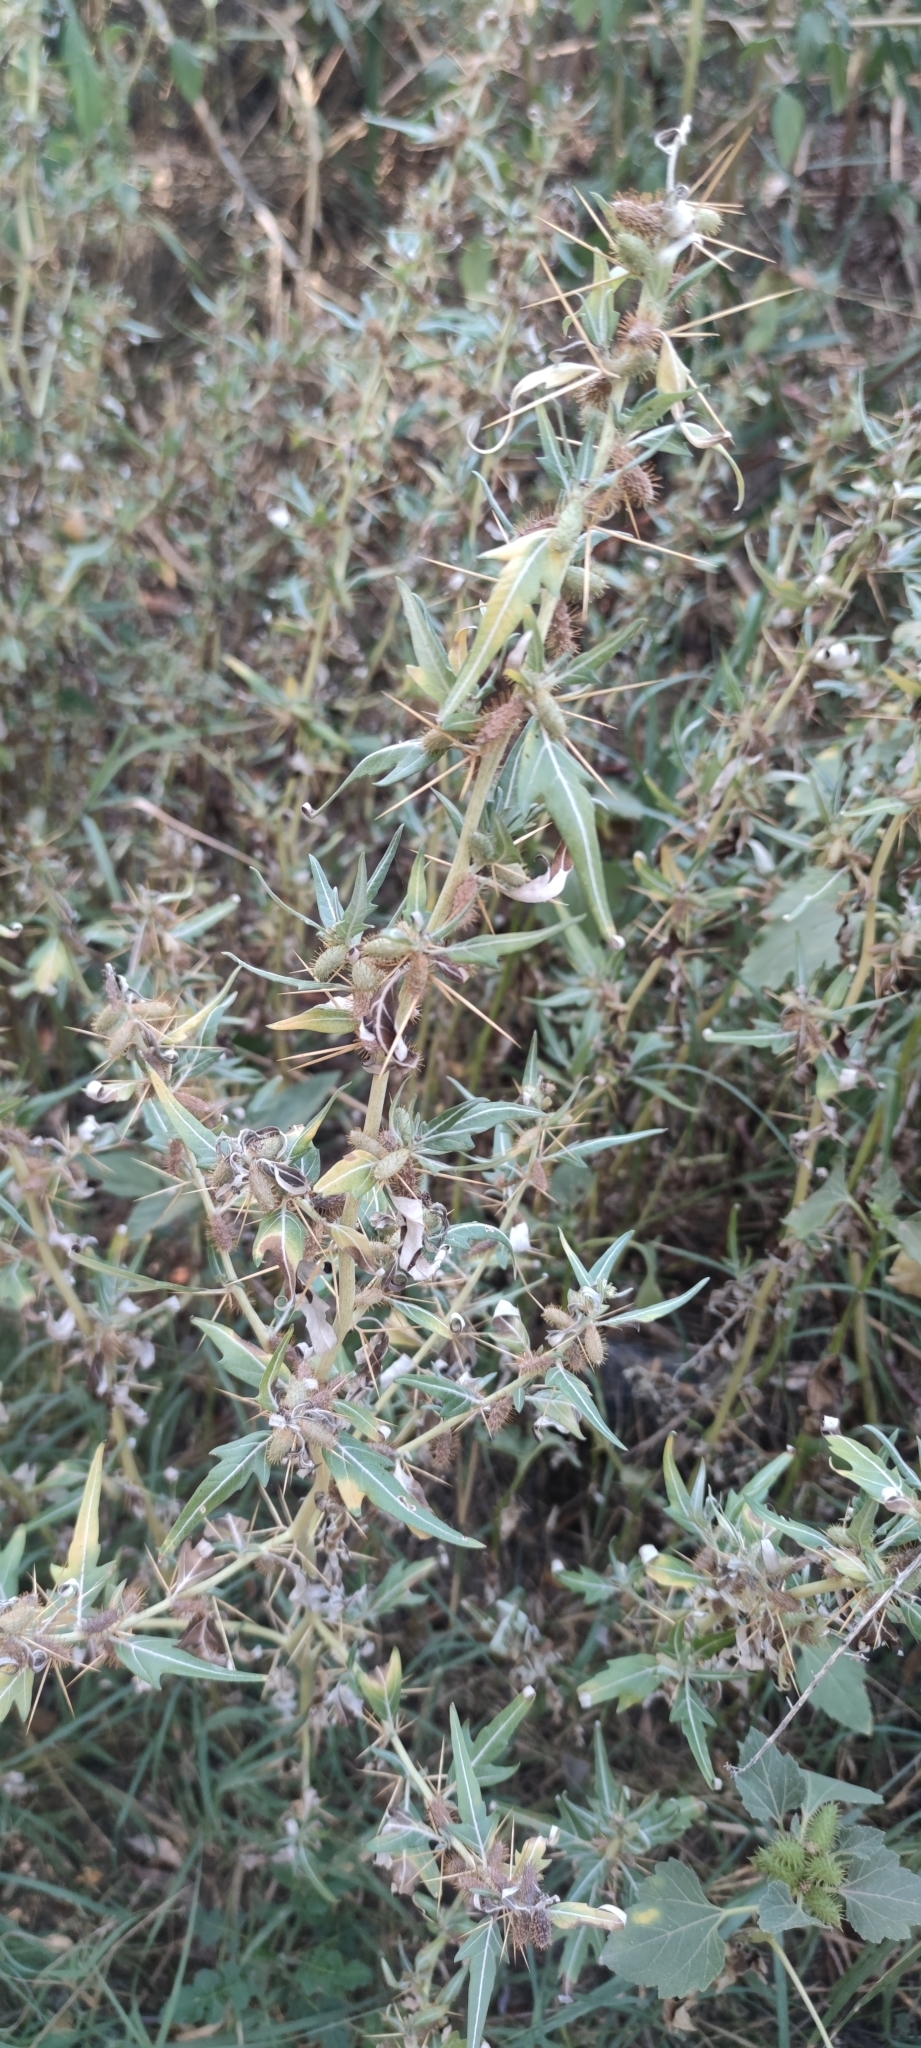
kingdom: Plantae
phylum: Tracheophyta
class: Magnoliopsida
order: Asterales
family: Asteraceae
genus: Xanthium
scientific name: Xanthium spinosum
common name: Spiny cocklebur
